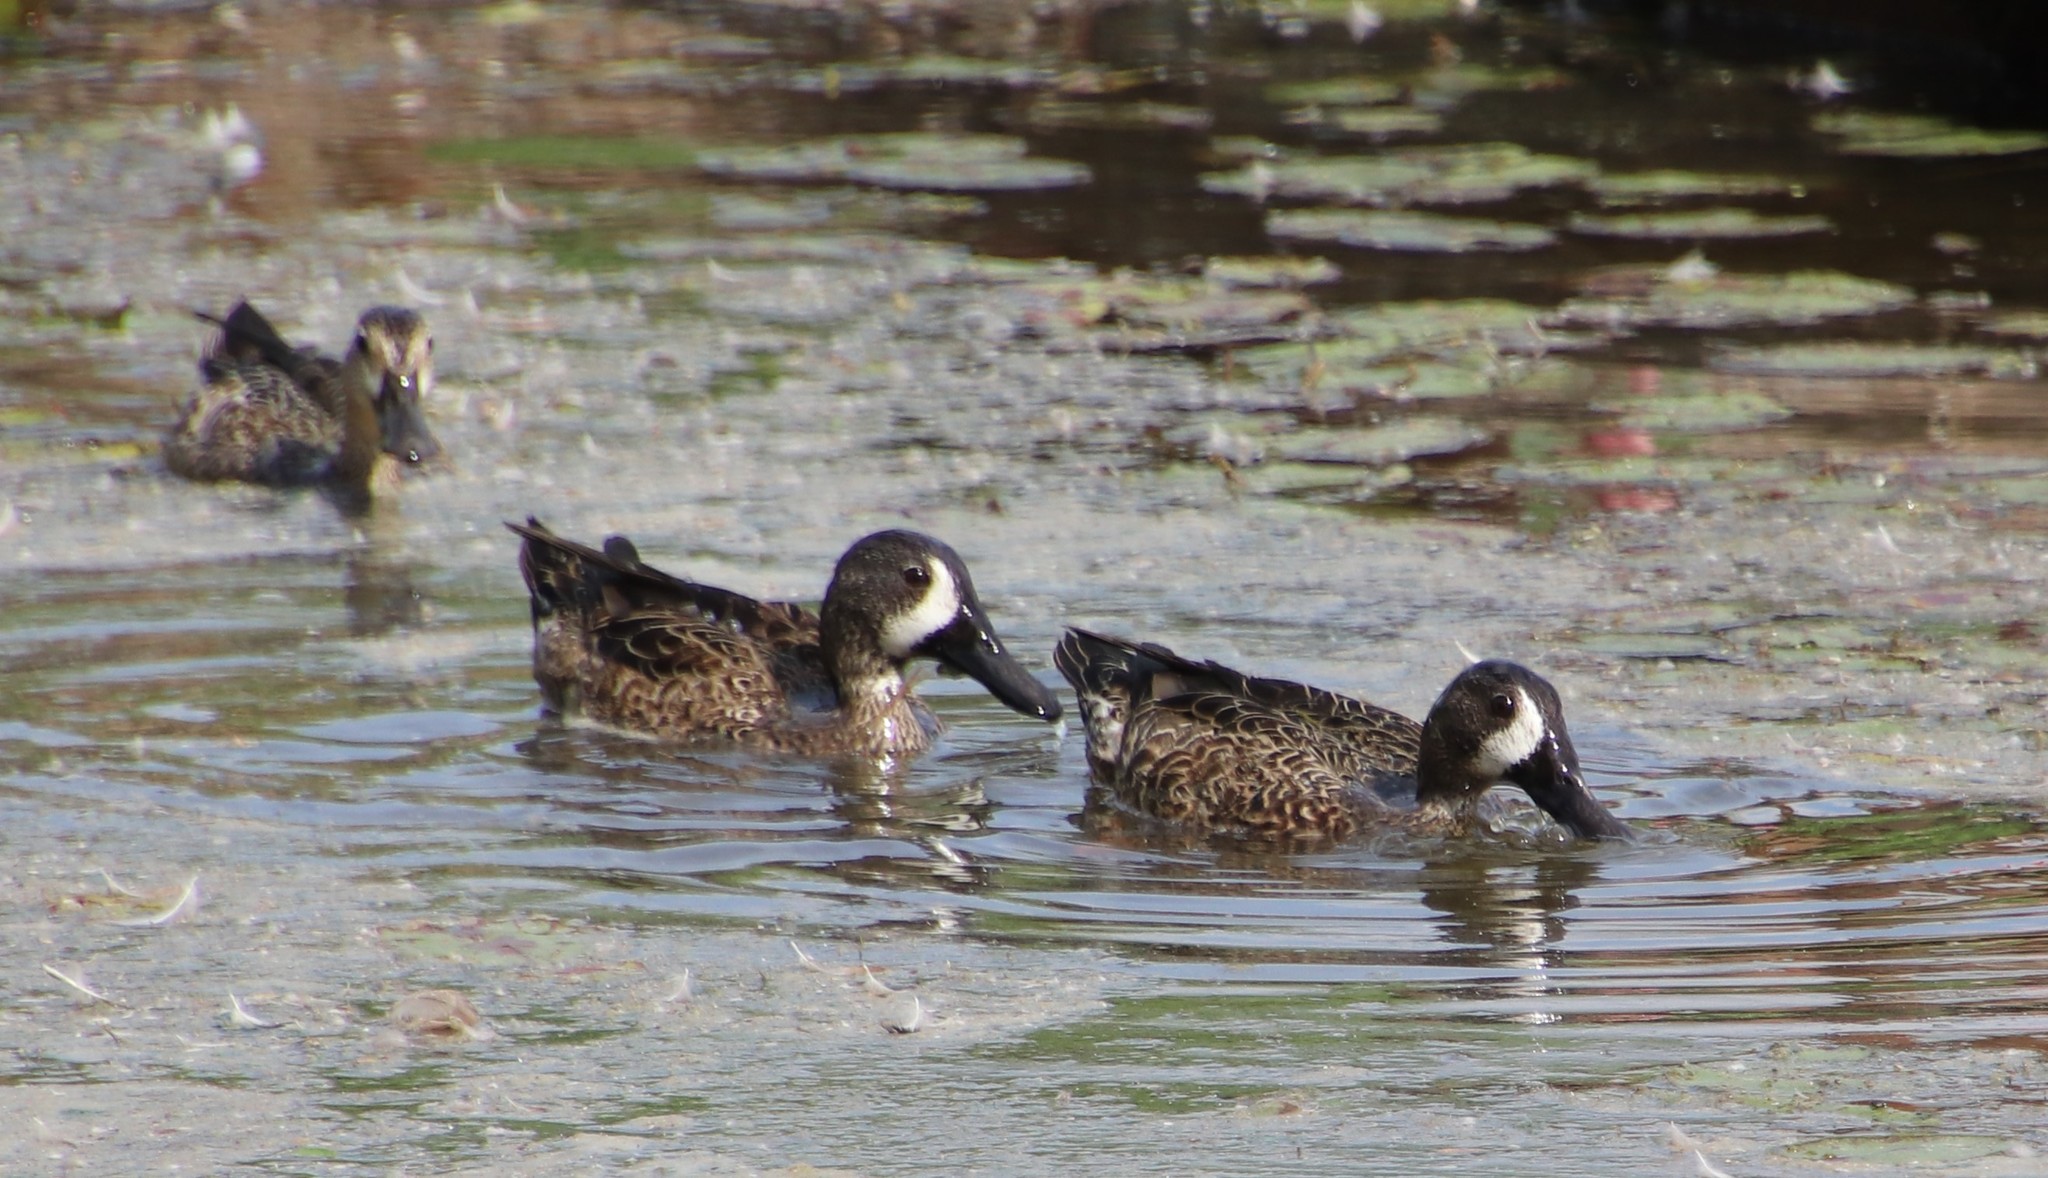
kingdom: Animalia
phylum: Chordata
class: Aves
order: Anseriformes
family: Anatidae
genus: Spatula
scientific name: Spatula discors
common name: Blue-winged teal
